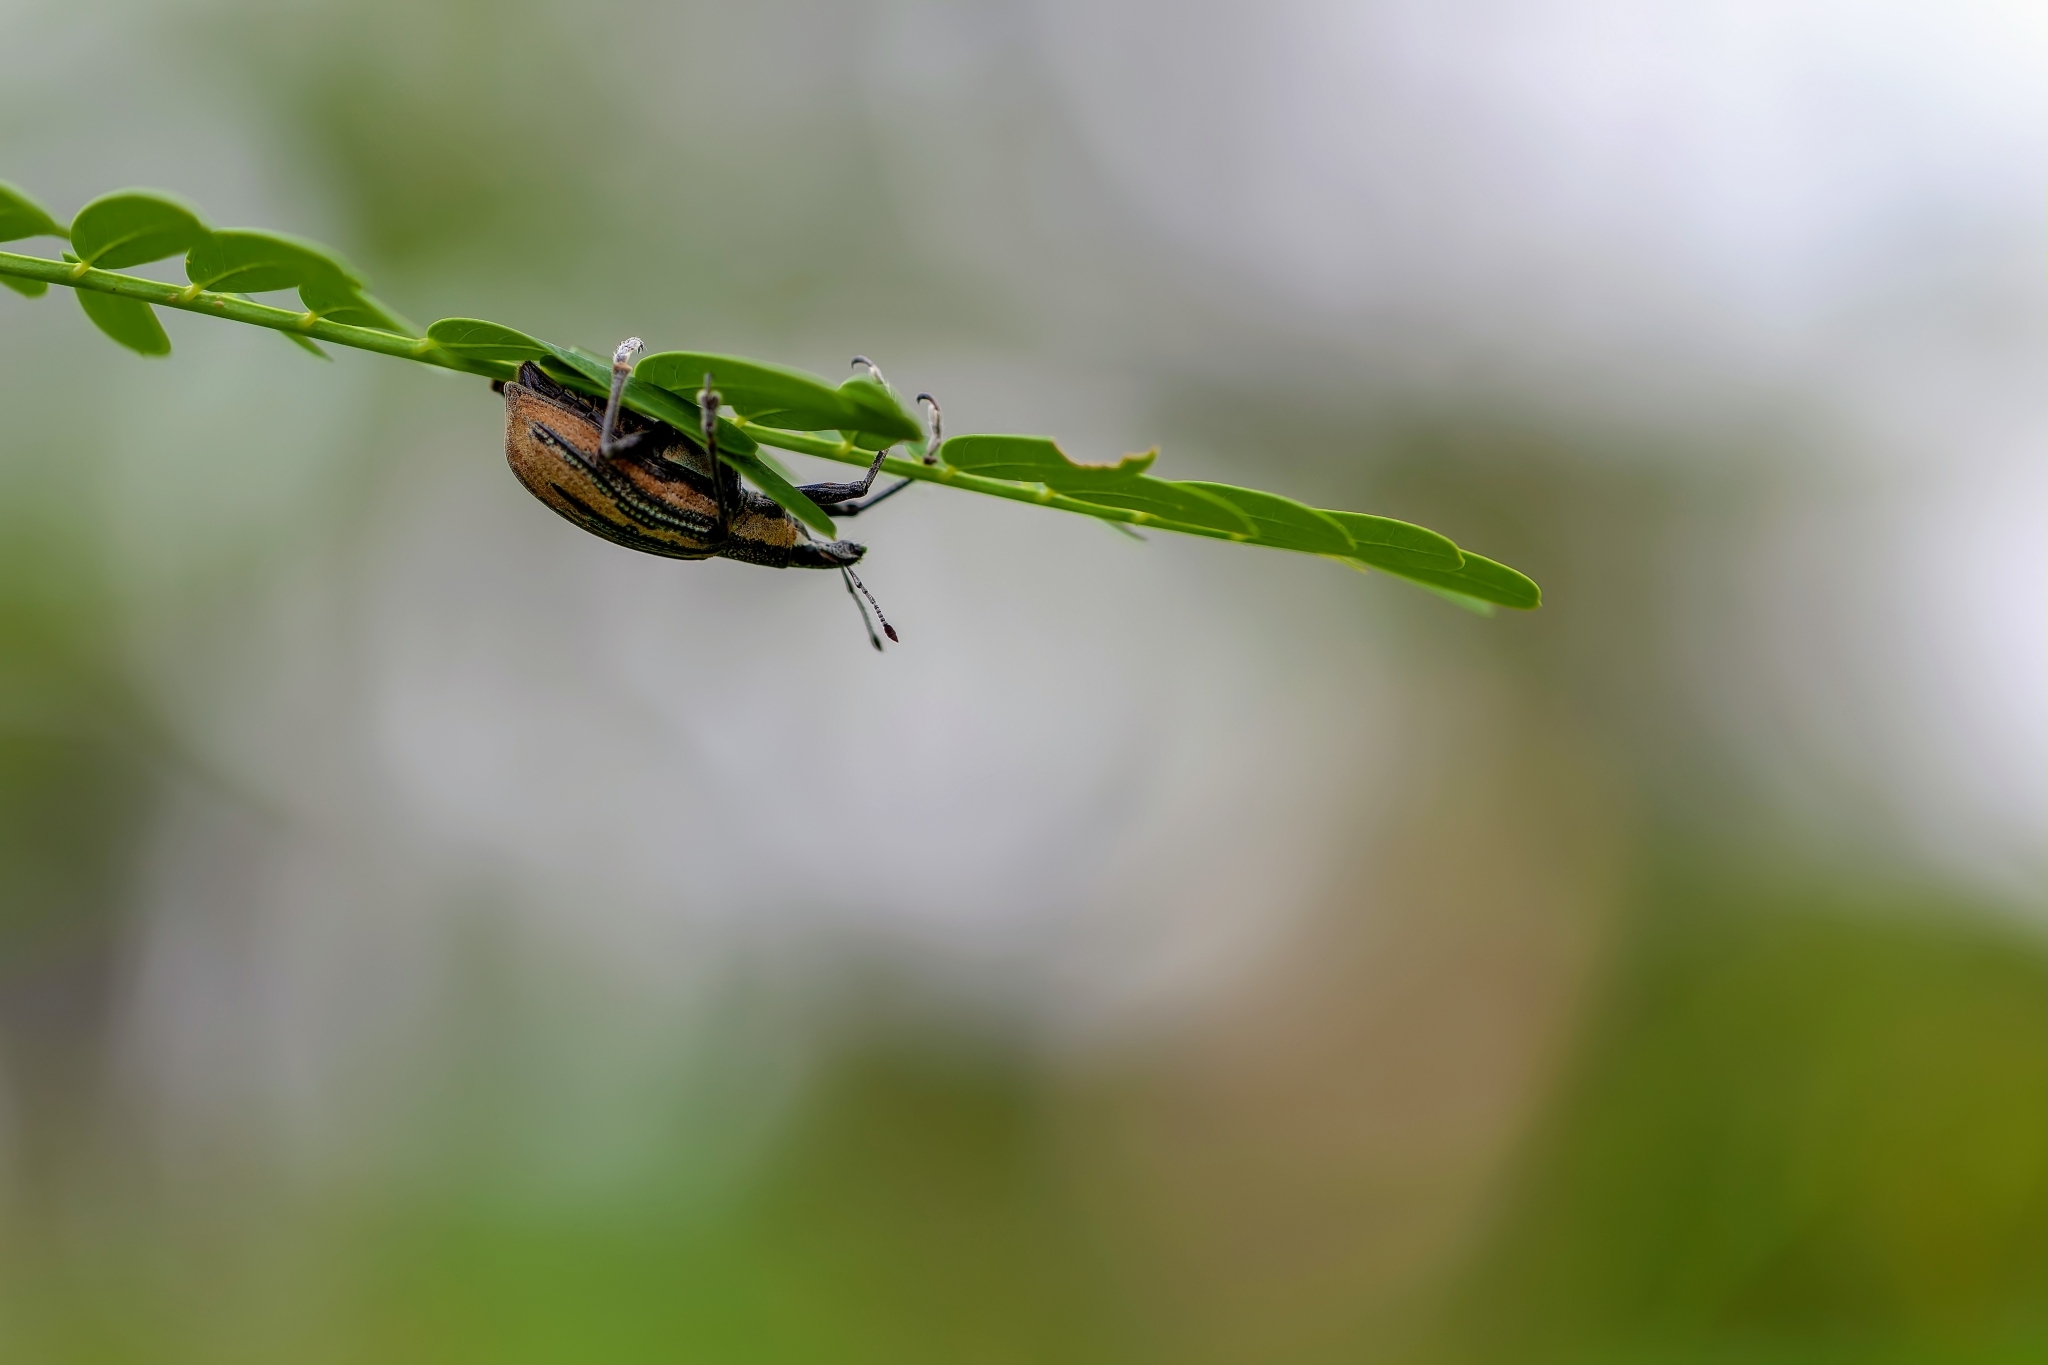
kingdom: Animalia
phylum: Arthropoda
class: Insecta
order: Coleoptera
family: Curculionidae
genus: Diaprepes
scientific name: Diaprepes abbreviatus
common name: Root weevil
